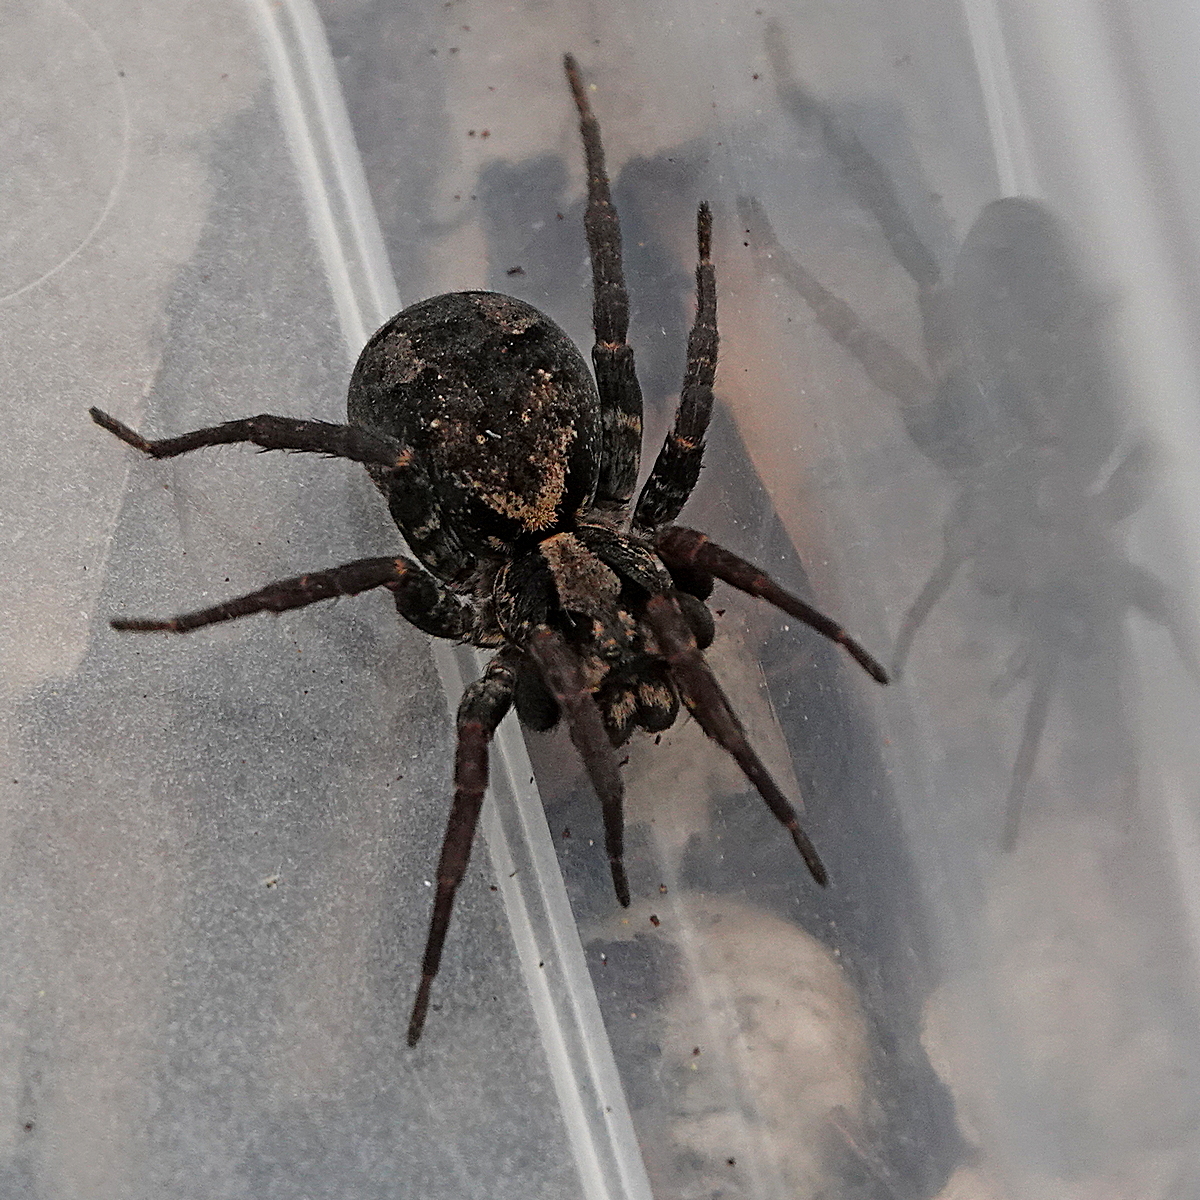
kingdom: Animalia
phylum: Arthropoda
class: Arachnida
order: Araneae
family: Lycosidae
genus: Venatrix
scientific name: Venatrix australiensis
